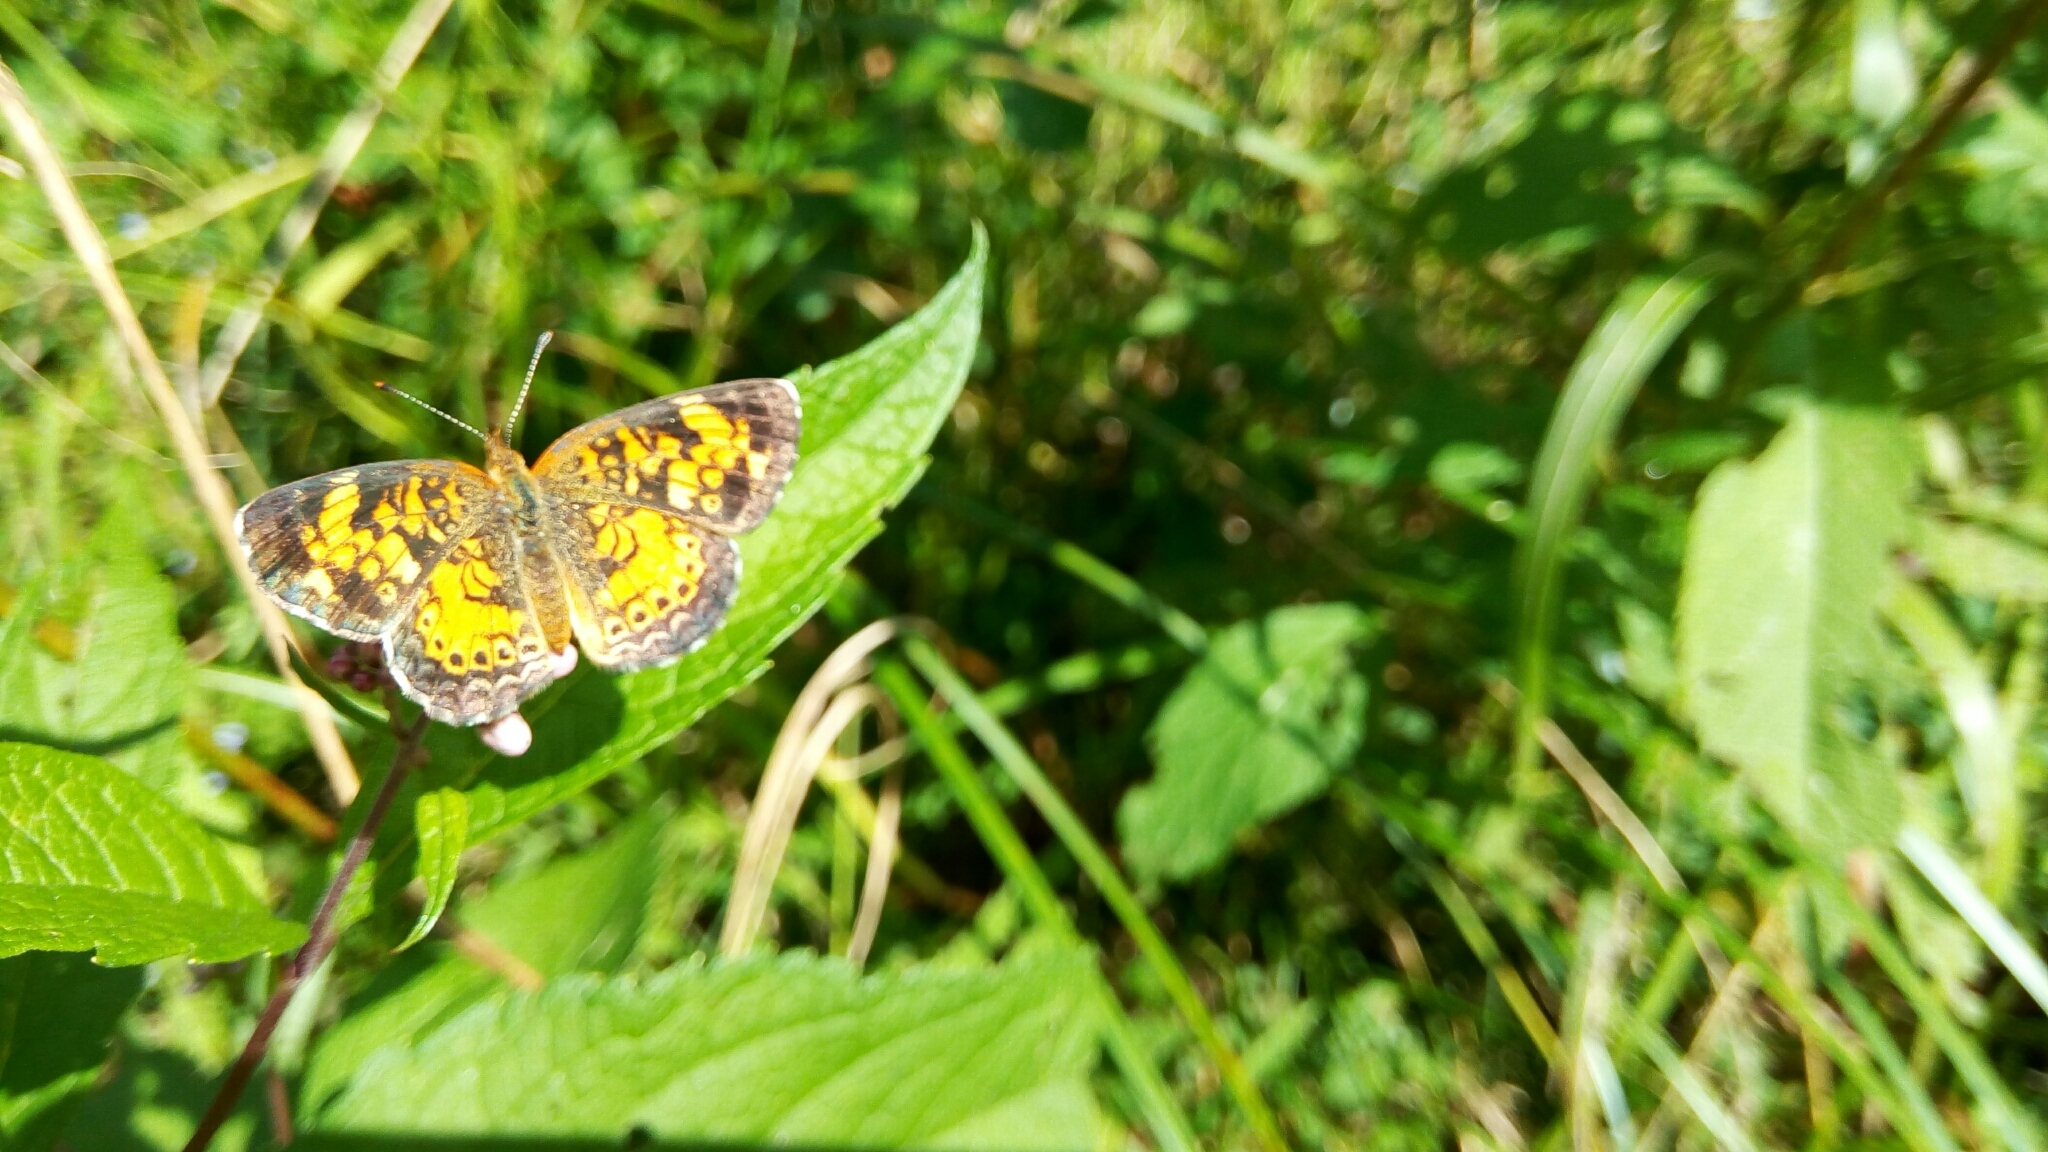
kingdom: Animalia
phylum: Arthropoda
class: Insecta
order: Lepidoptera
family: Nymphalidae
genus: Phyciodes
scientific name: Phyciodes tharos
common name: Pearl crescent
